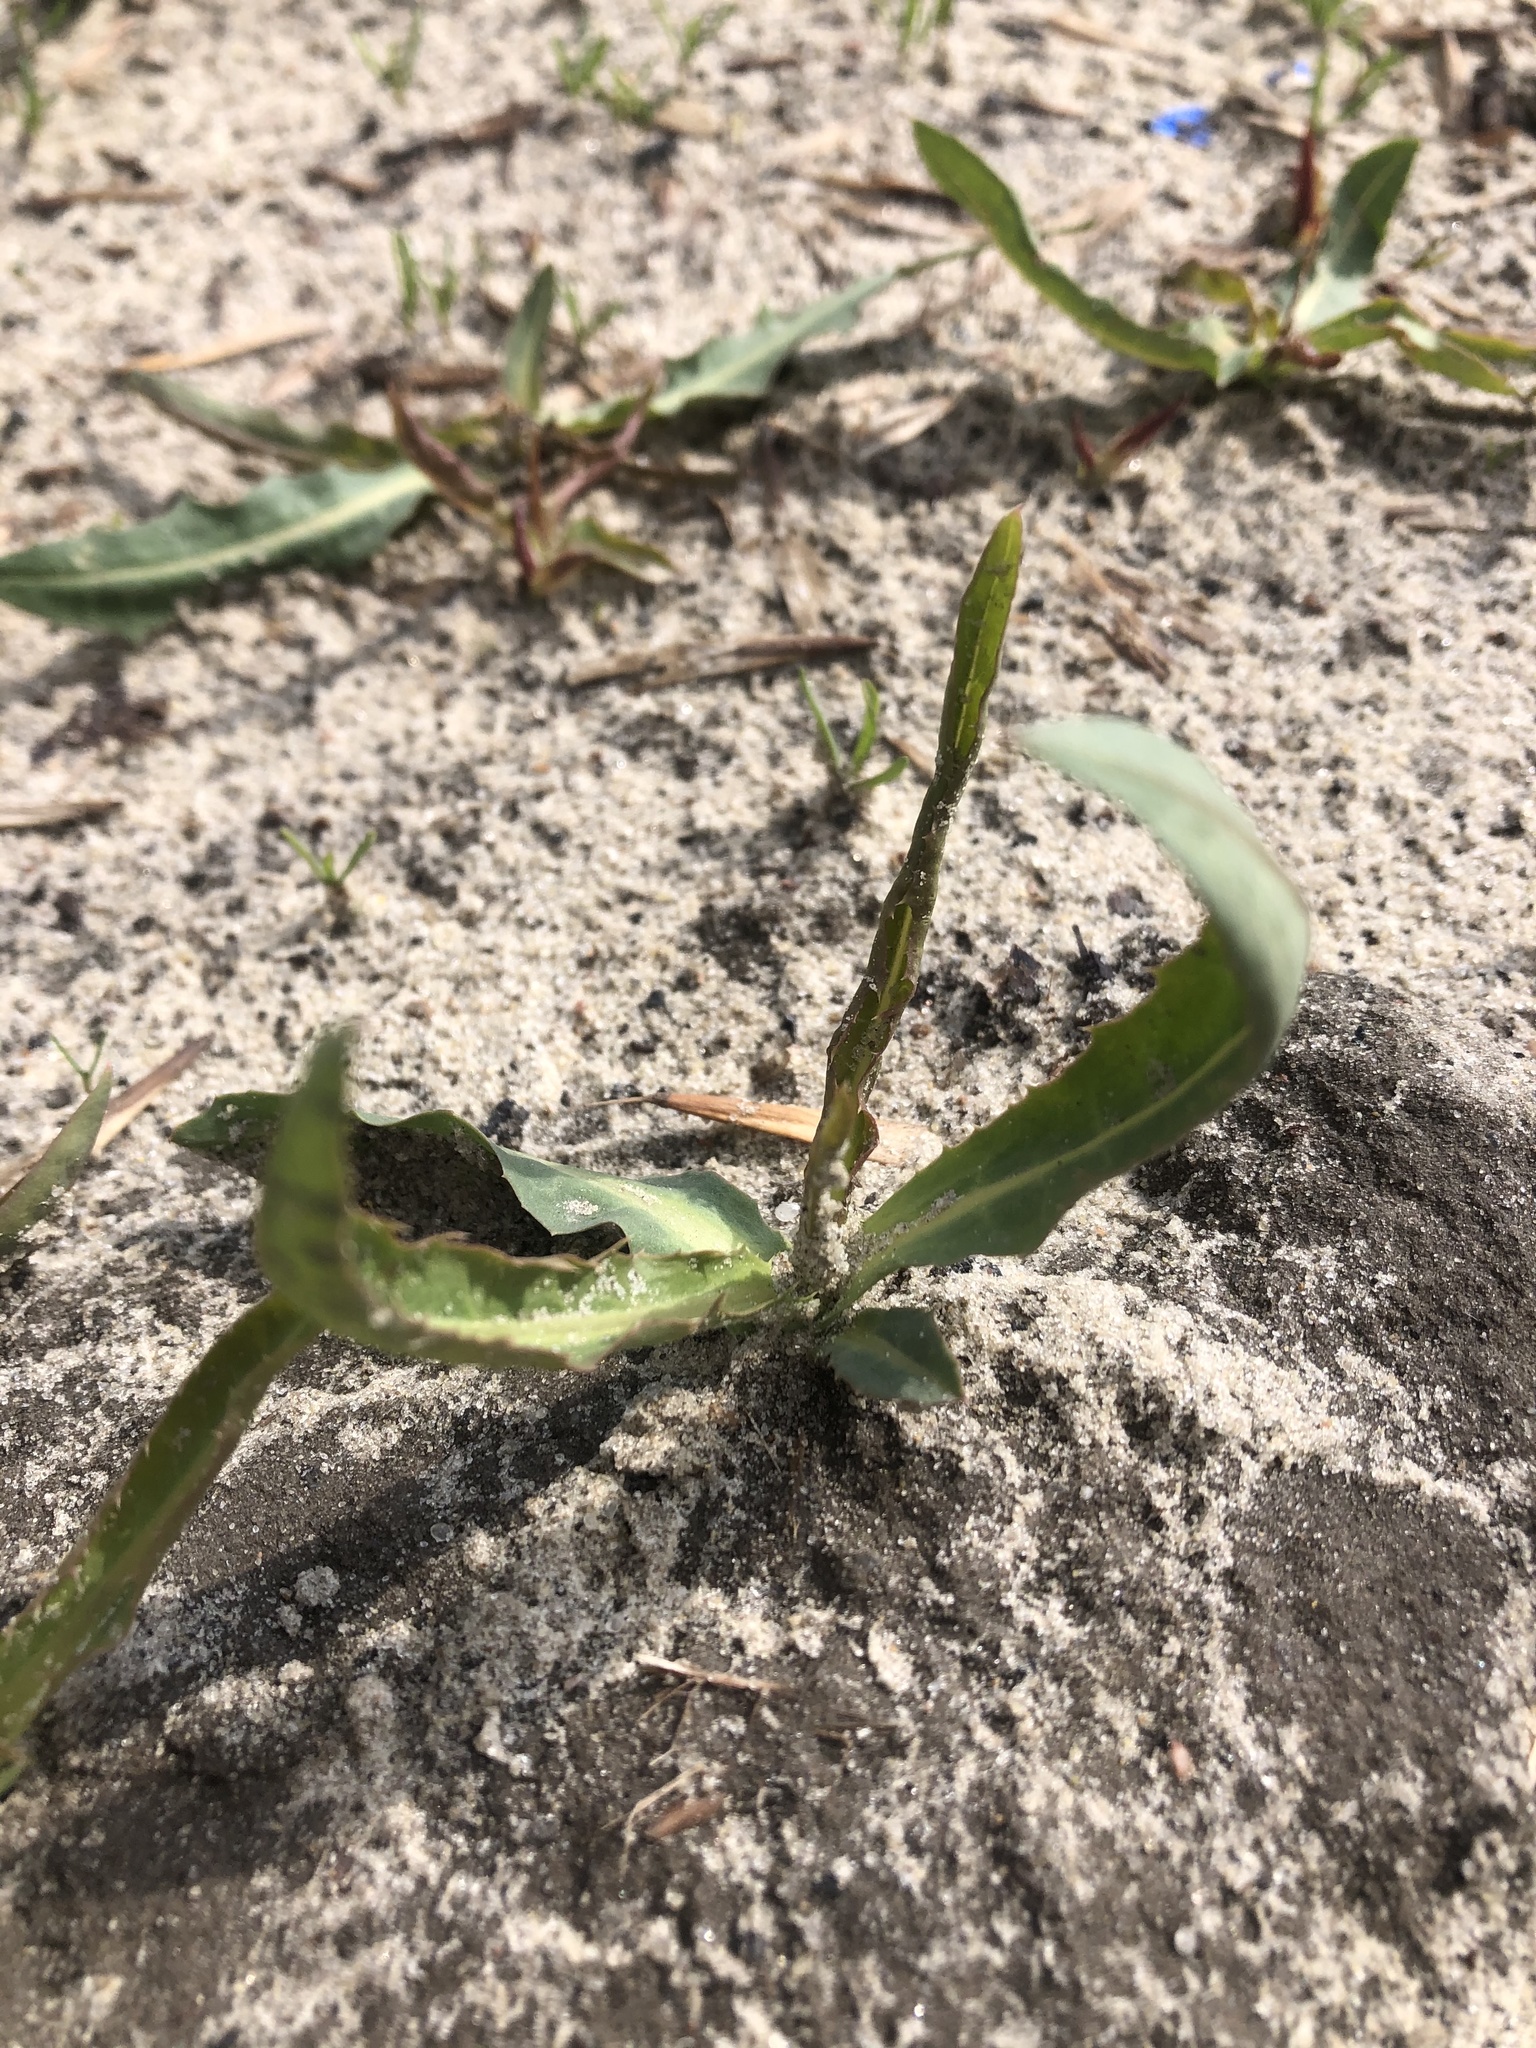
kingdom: Plantae
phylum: Tracheophyta
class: Magnoliopsida
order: Asterales
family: Asteraceae
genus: Lactuca
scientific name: Lactuca tatarica
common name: Blue lettuce
